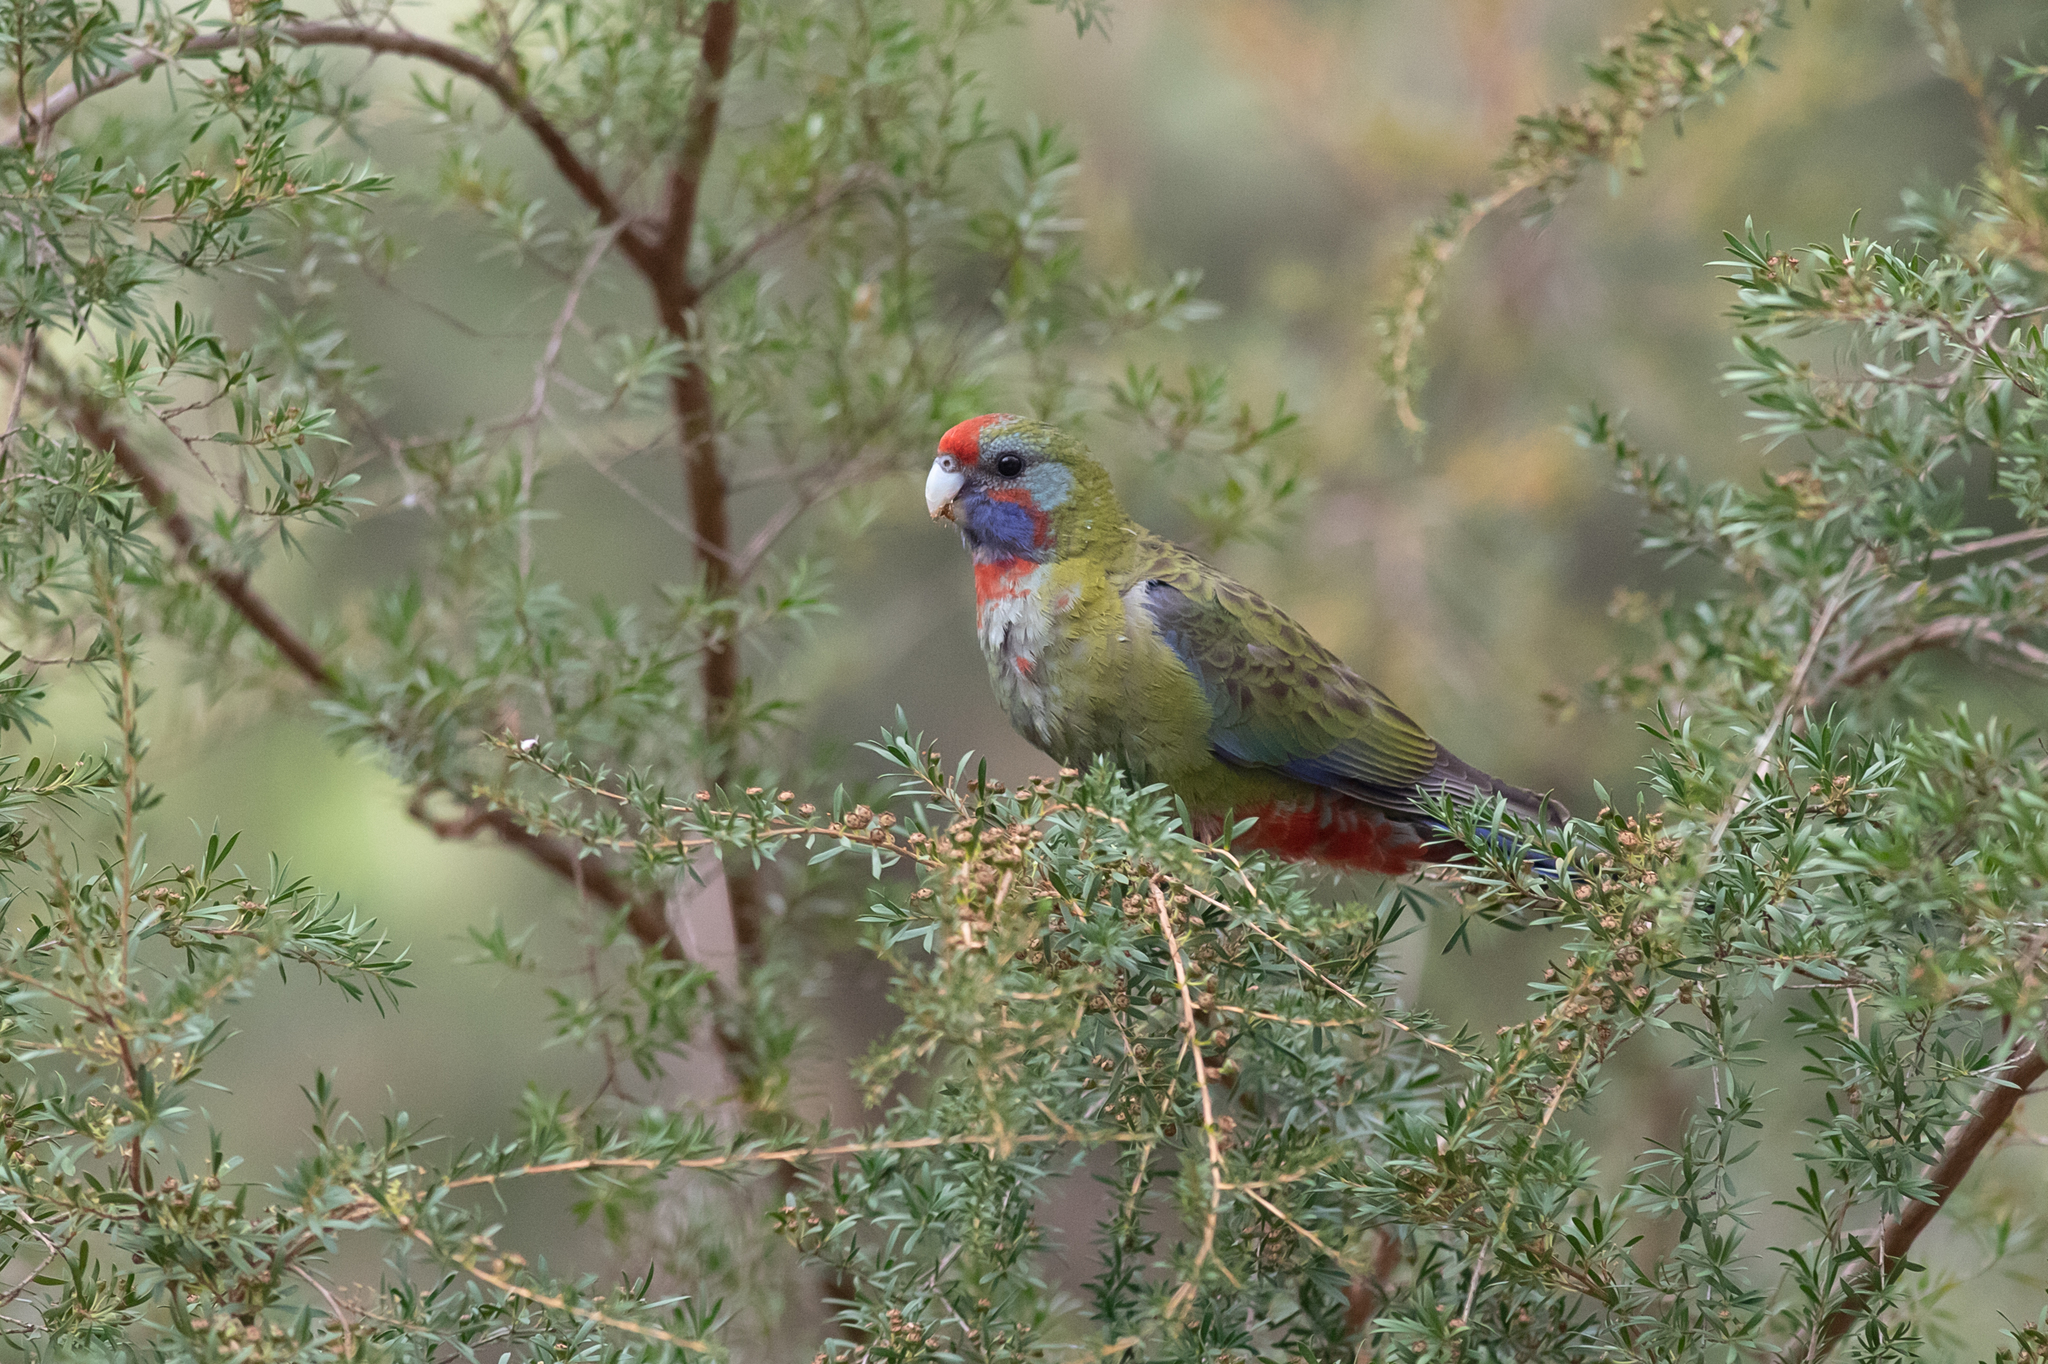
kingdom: Animalia
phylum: Chordata
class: Aves
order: Psittaciformes
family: Psittacidae
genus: Platycercus
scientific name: Platycercus elegans
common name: Crimson rosella
